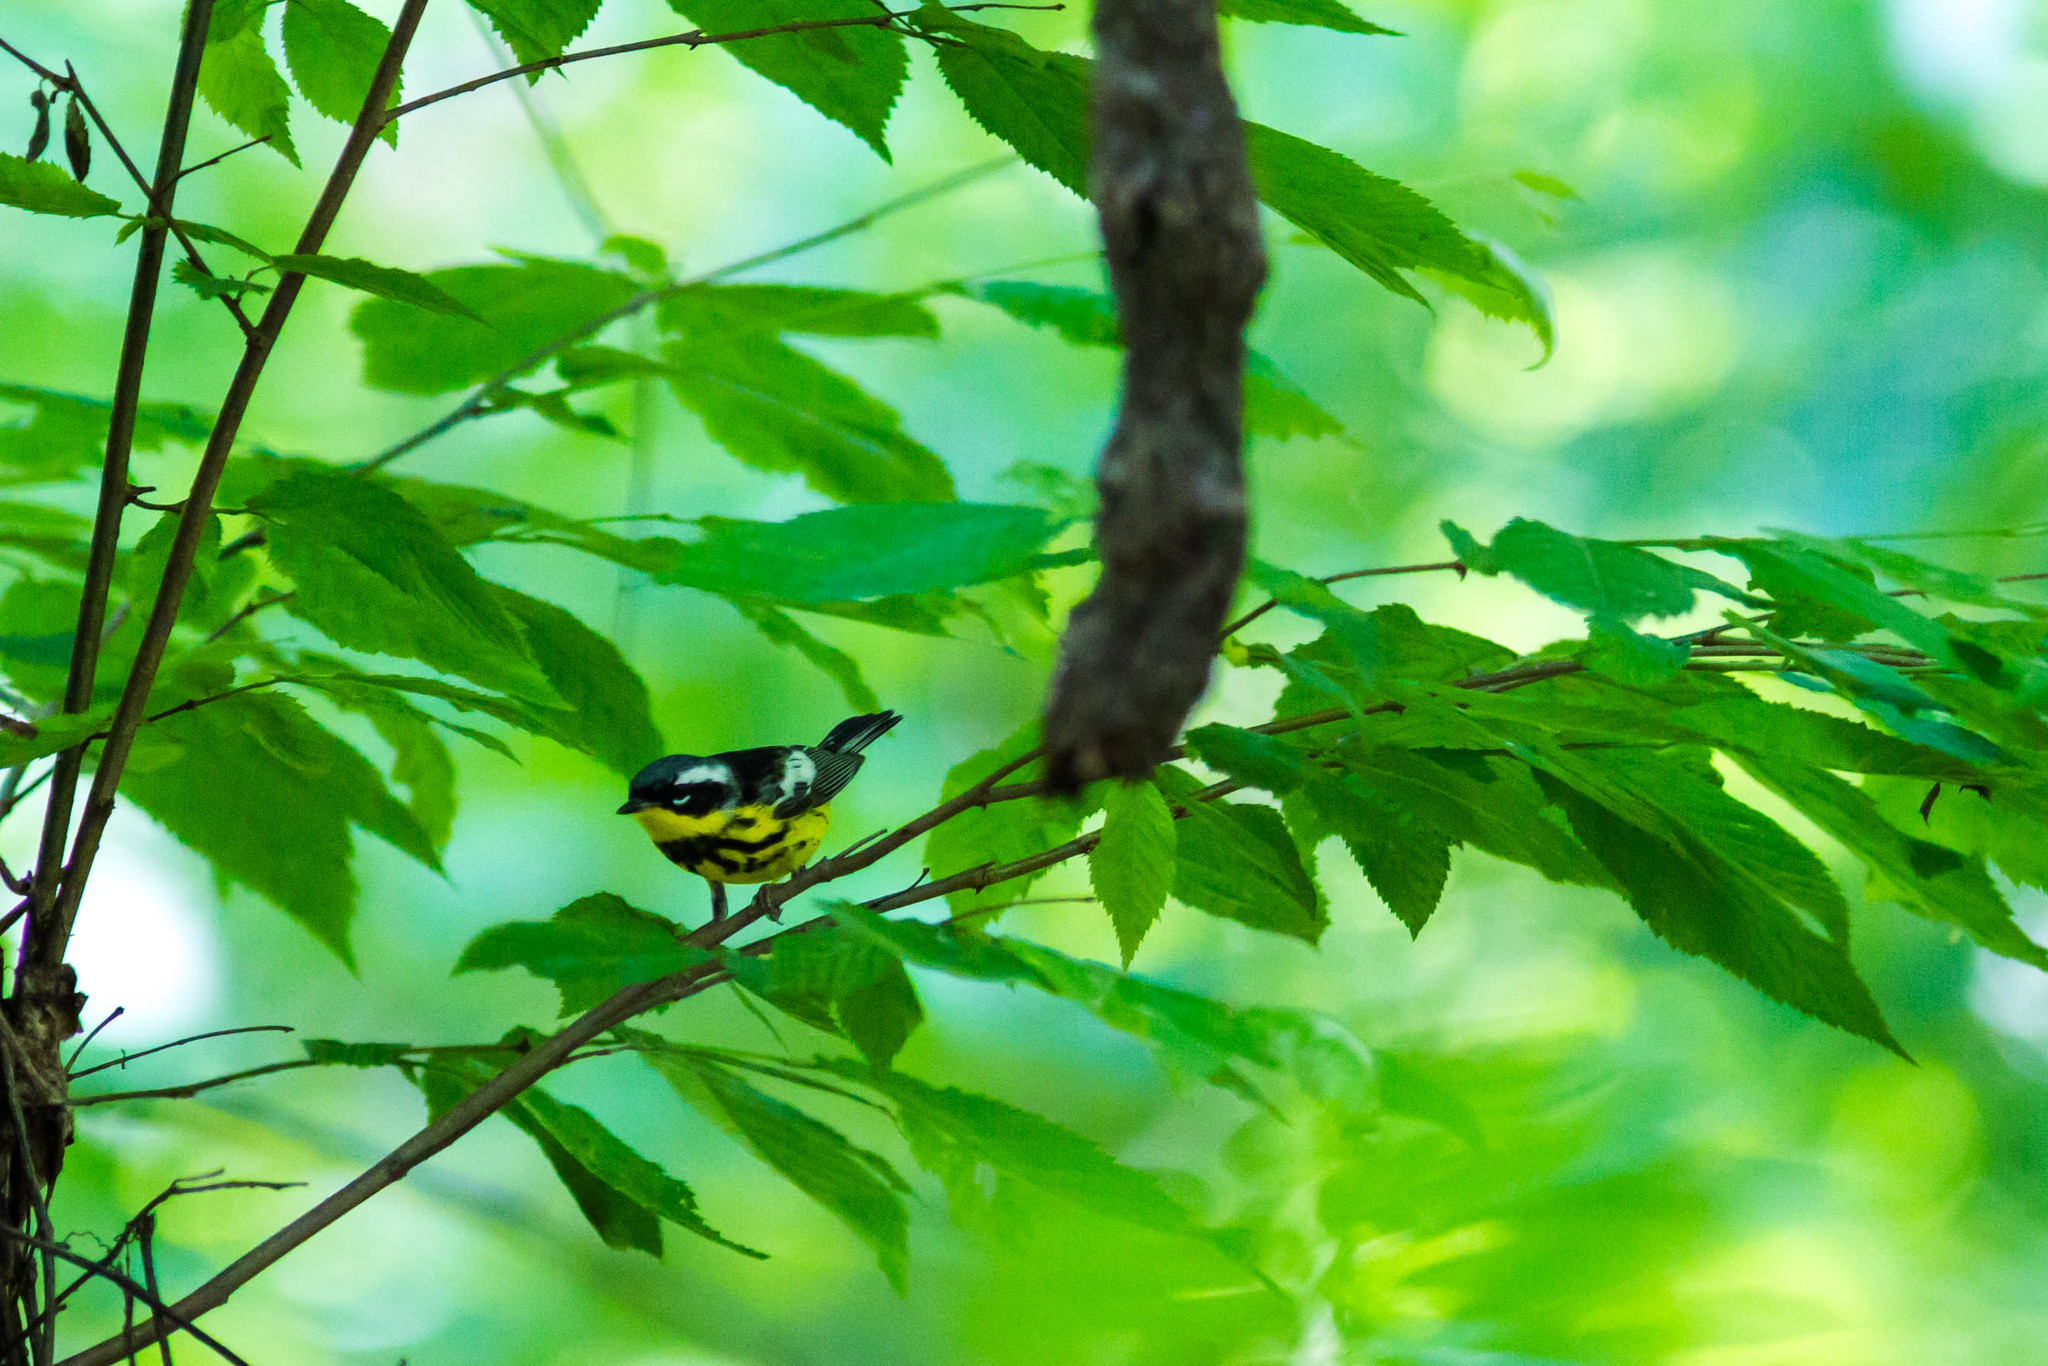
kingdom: Animalia
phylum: Chordata
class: Aves
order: Passeriformes
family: Parulidae
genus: Setophaga
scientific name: Setophaga magnolia
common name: Magnolia warbler
